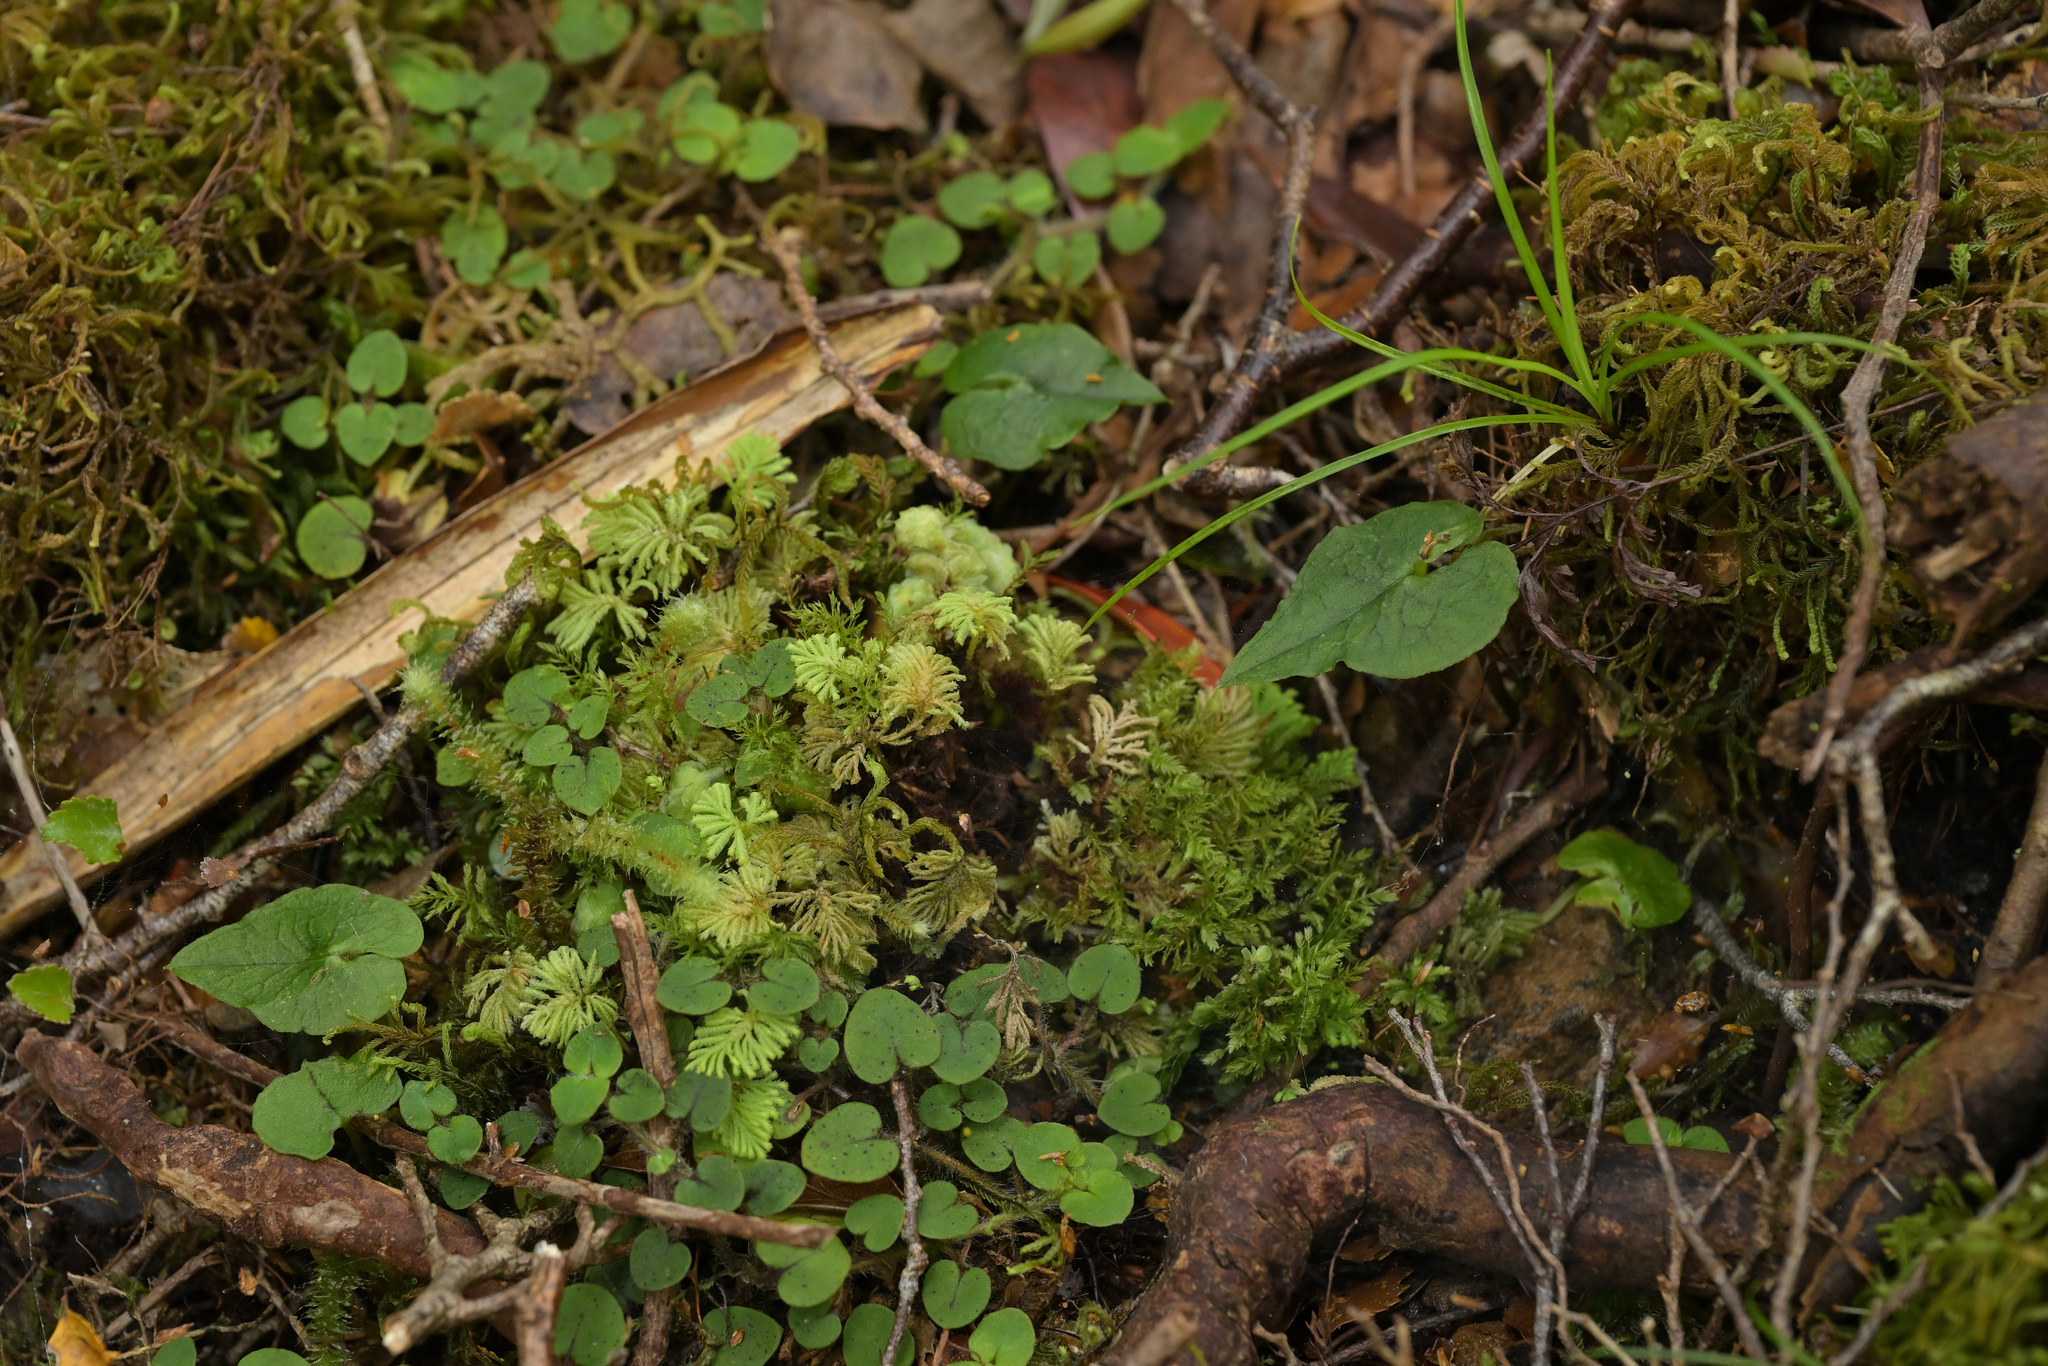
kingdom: Plantae
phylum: Tracheophyta
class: Liliopsida
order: Asparagales
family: Orchidaceae
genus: Corybas
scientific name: Corybas acuminatus
